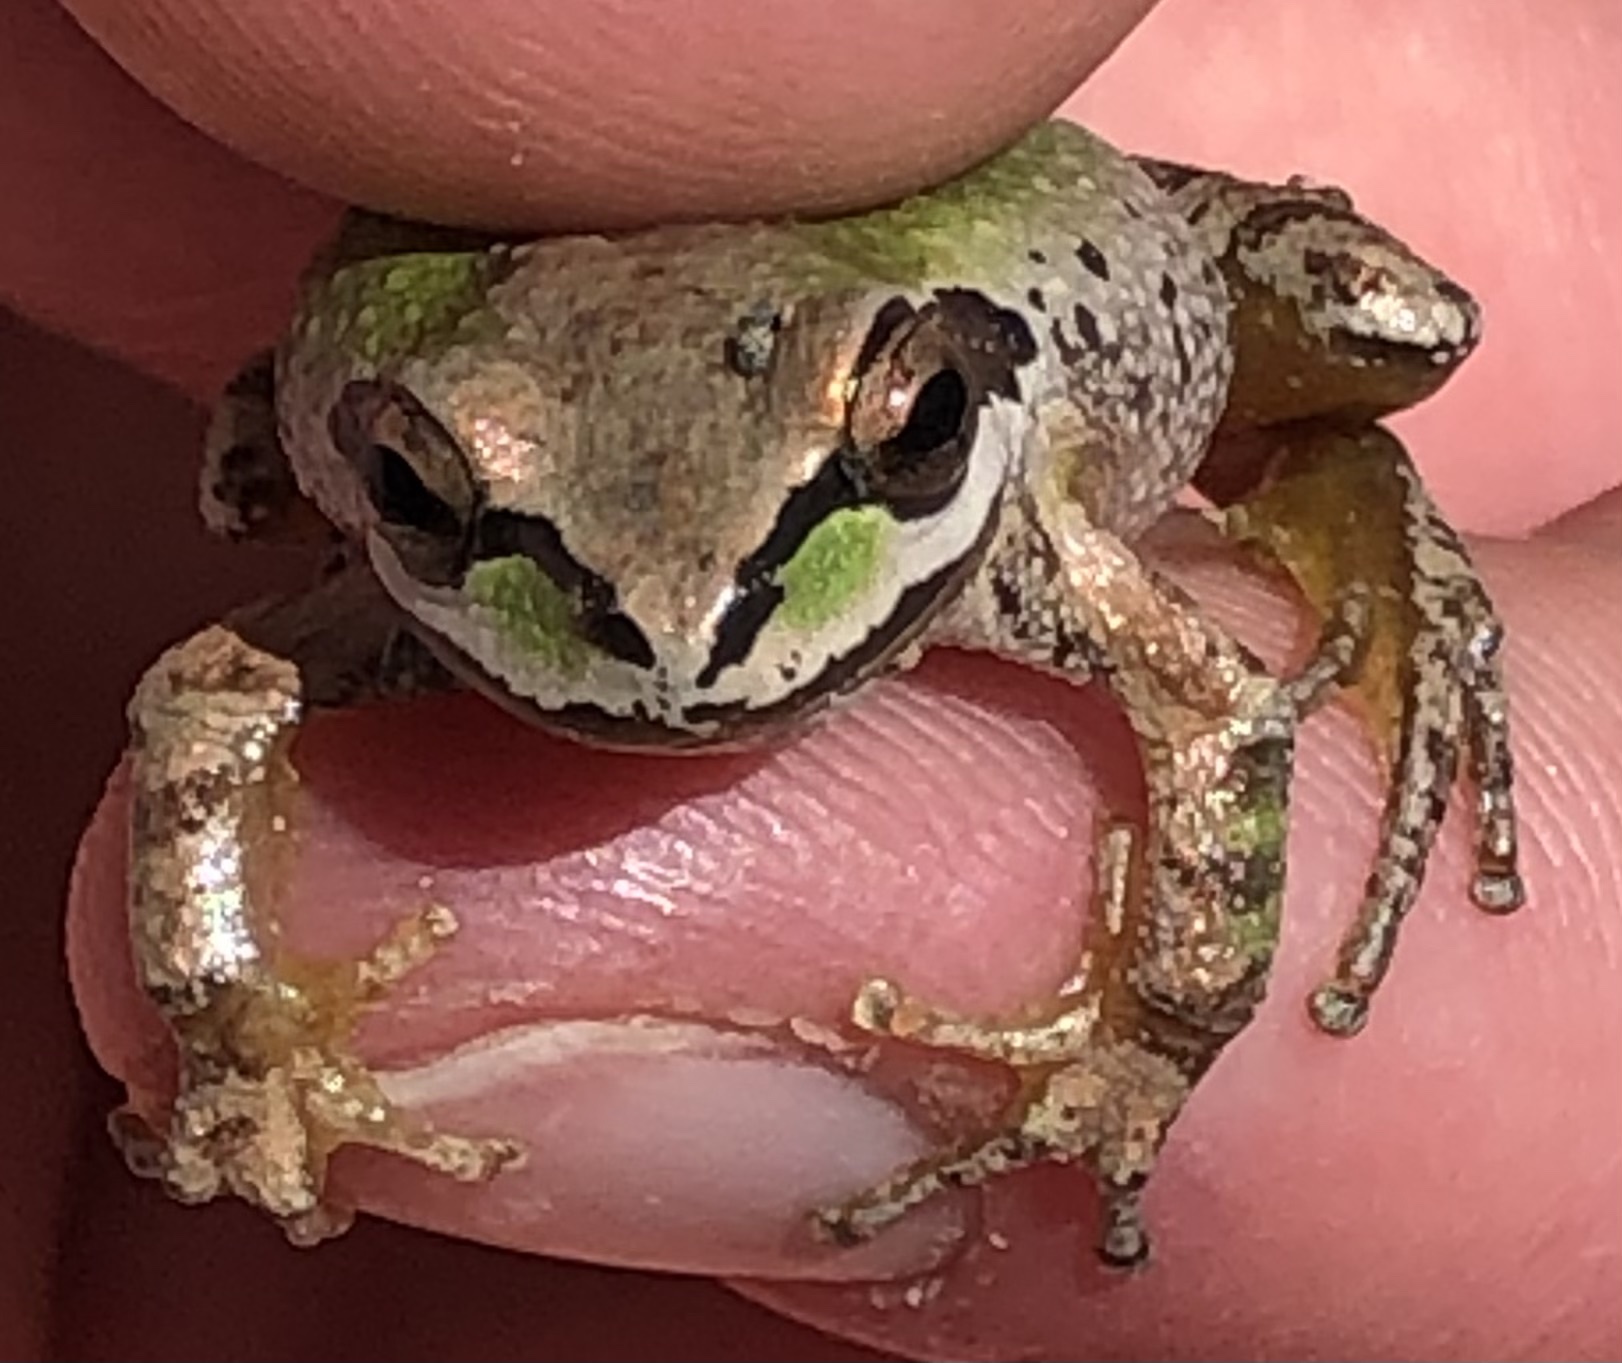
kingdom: Animalia
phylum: Chordata
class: Amphibia
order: Anura
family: Hylidae
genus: Pseudacris
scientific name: Pseudacris regilla
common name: Pacific chorus frog
